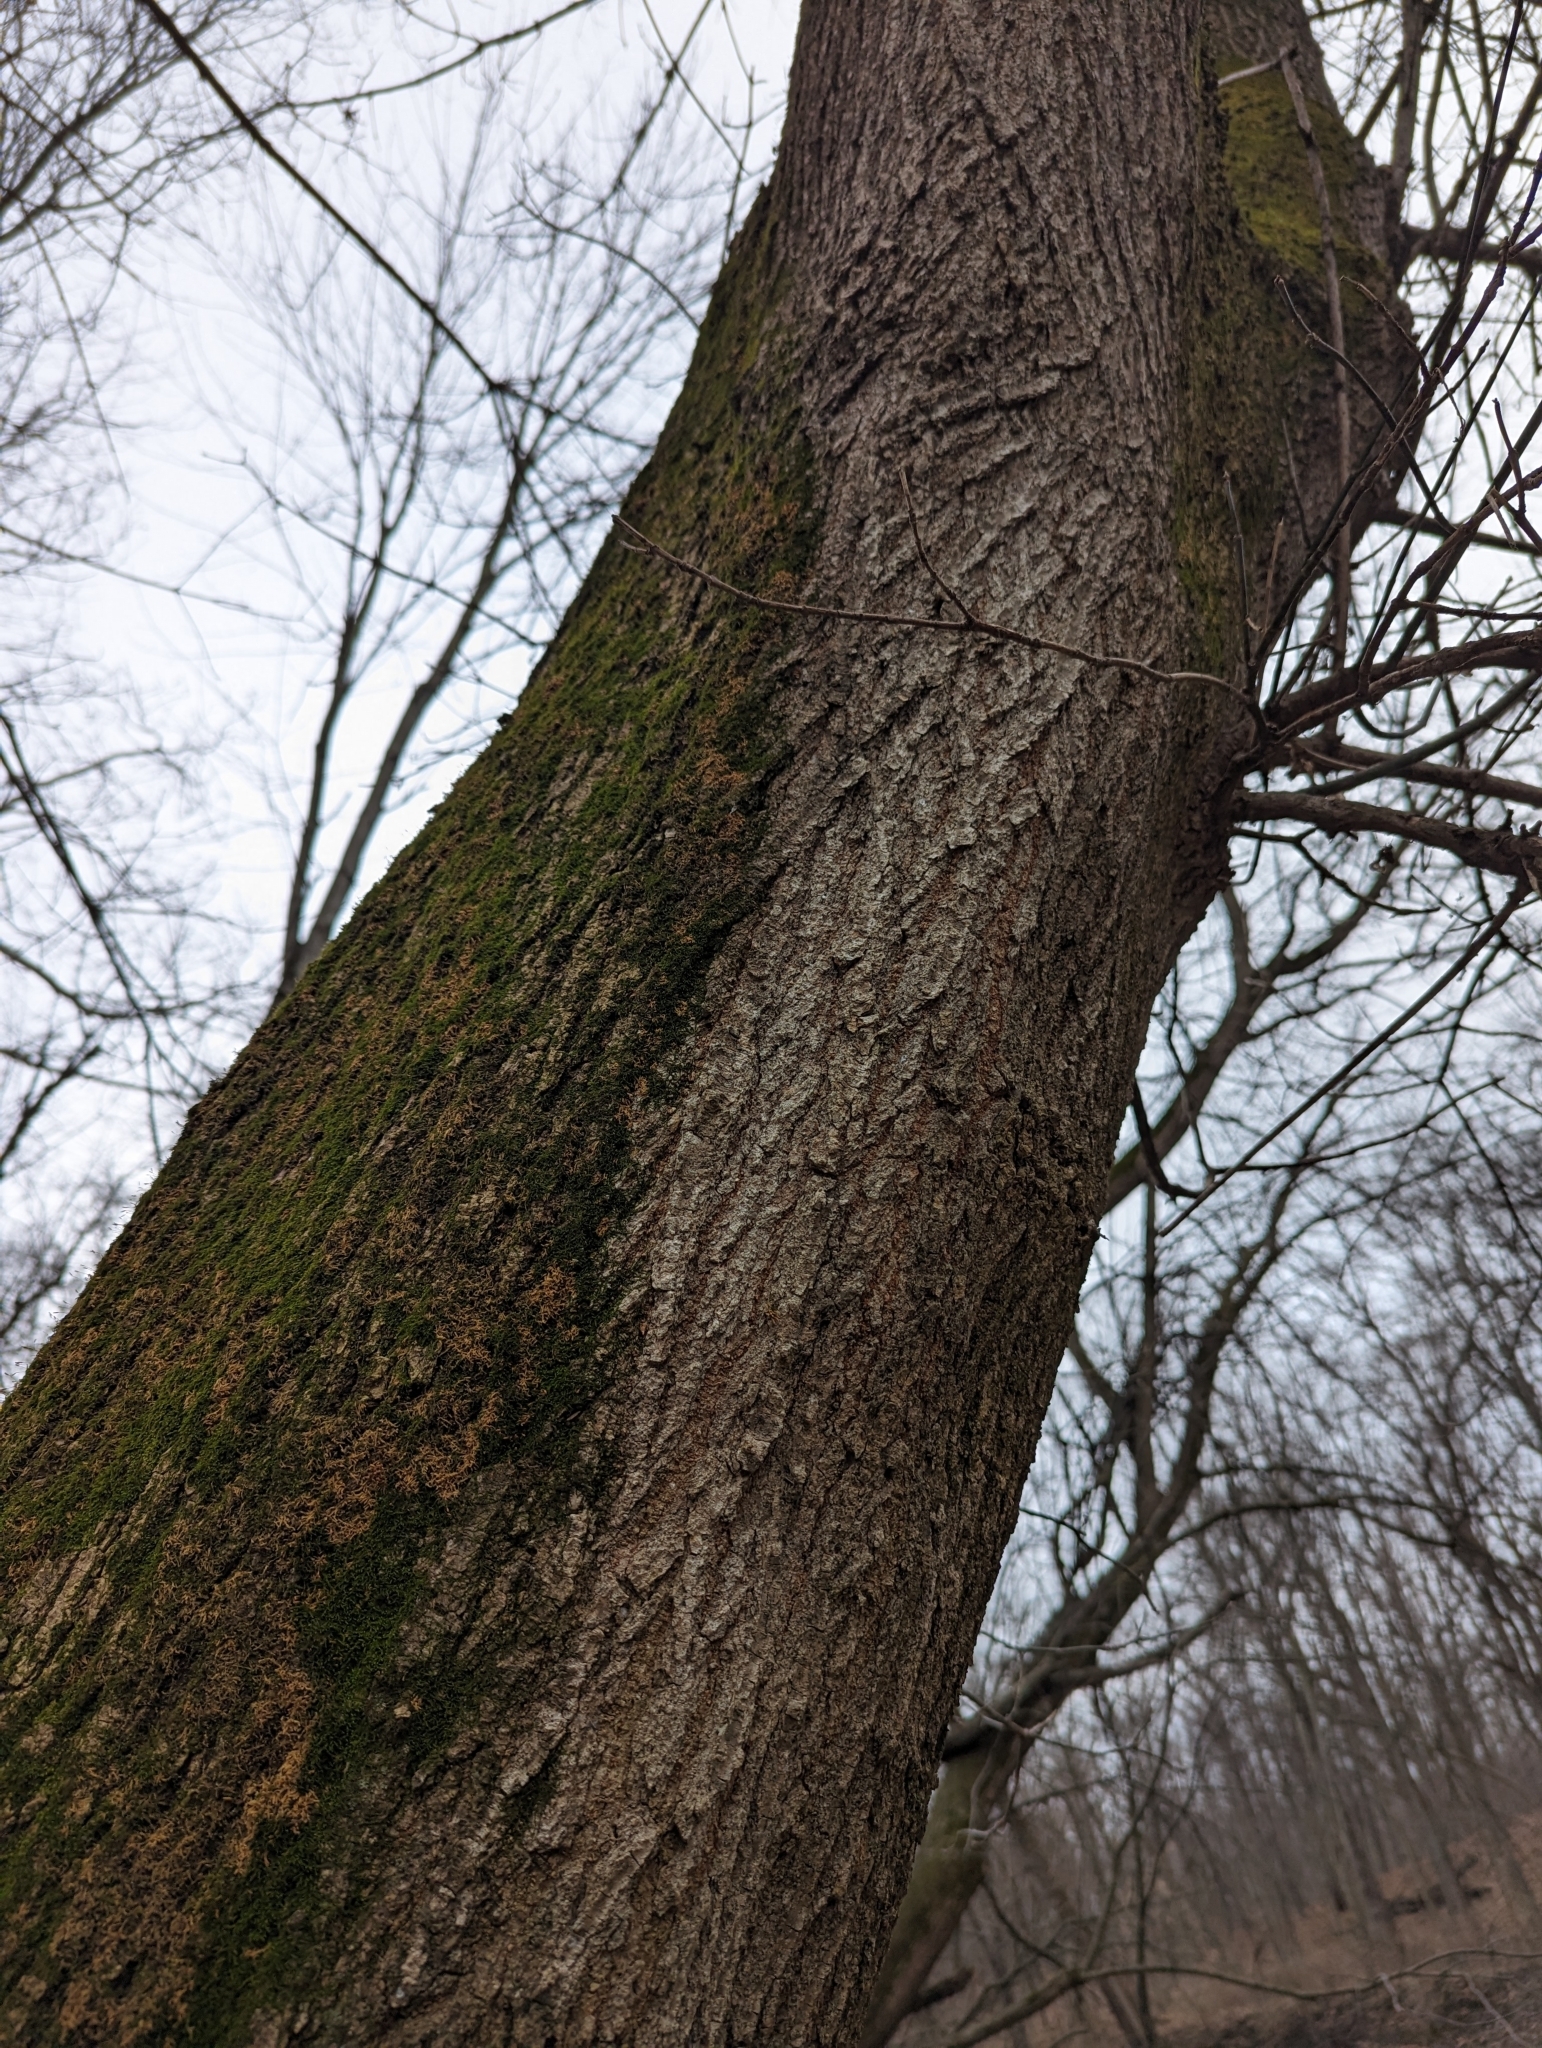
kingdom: Plantae
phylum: Tracheophyta
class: Magnoliopsida
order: Sapindales
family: Sapindaceae
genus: Acer
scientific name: Acer negundo
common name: Ashleaf maple
